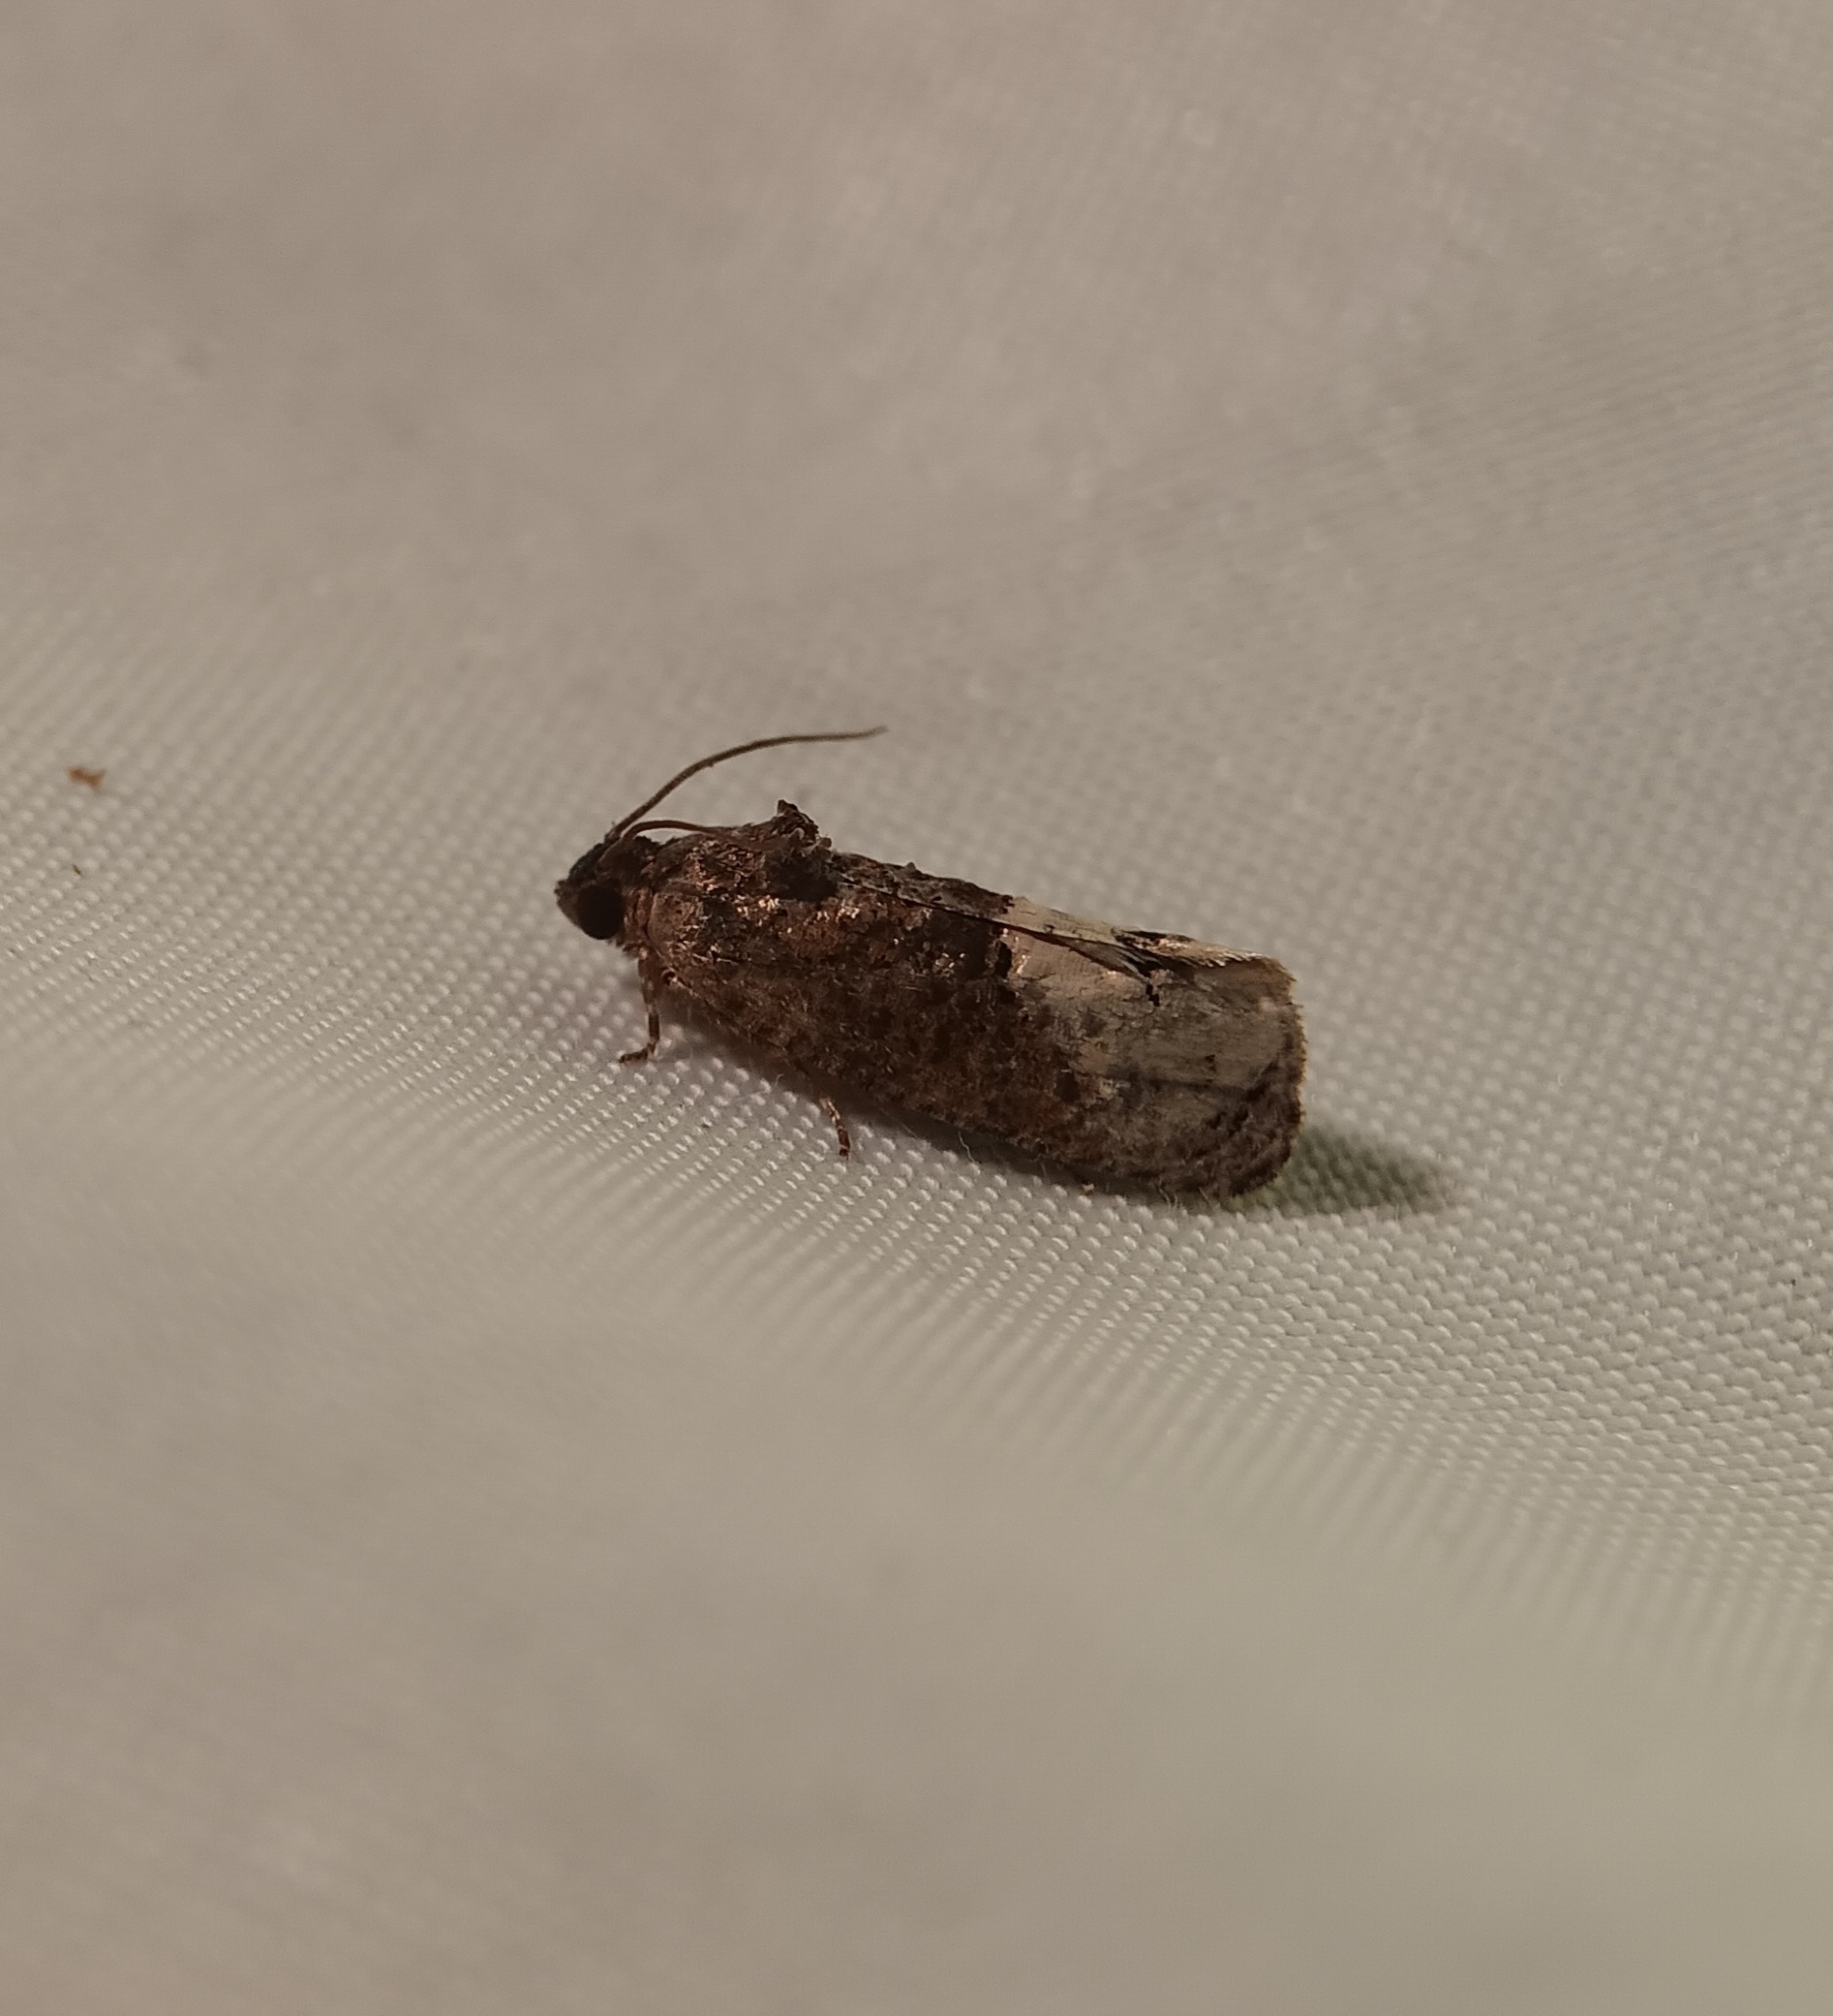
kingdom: Animalia
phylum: Arthropoda
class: Insecta
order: Lepidoptera
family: Tortricidae
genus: Ecdytolopha
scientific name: Ecdytolopha insiticiana
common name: Locust twig borer moth
